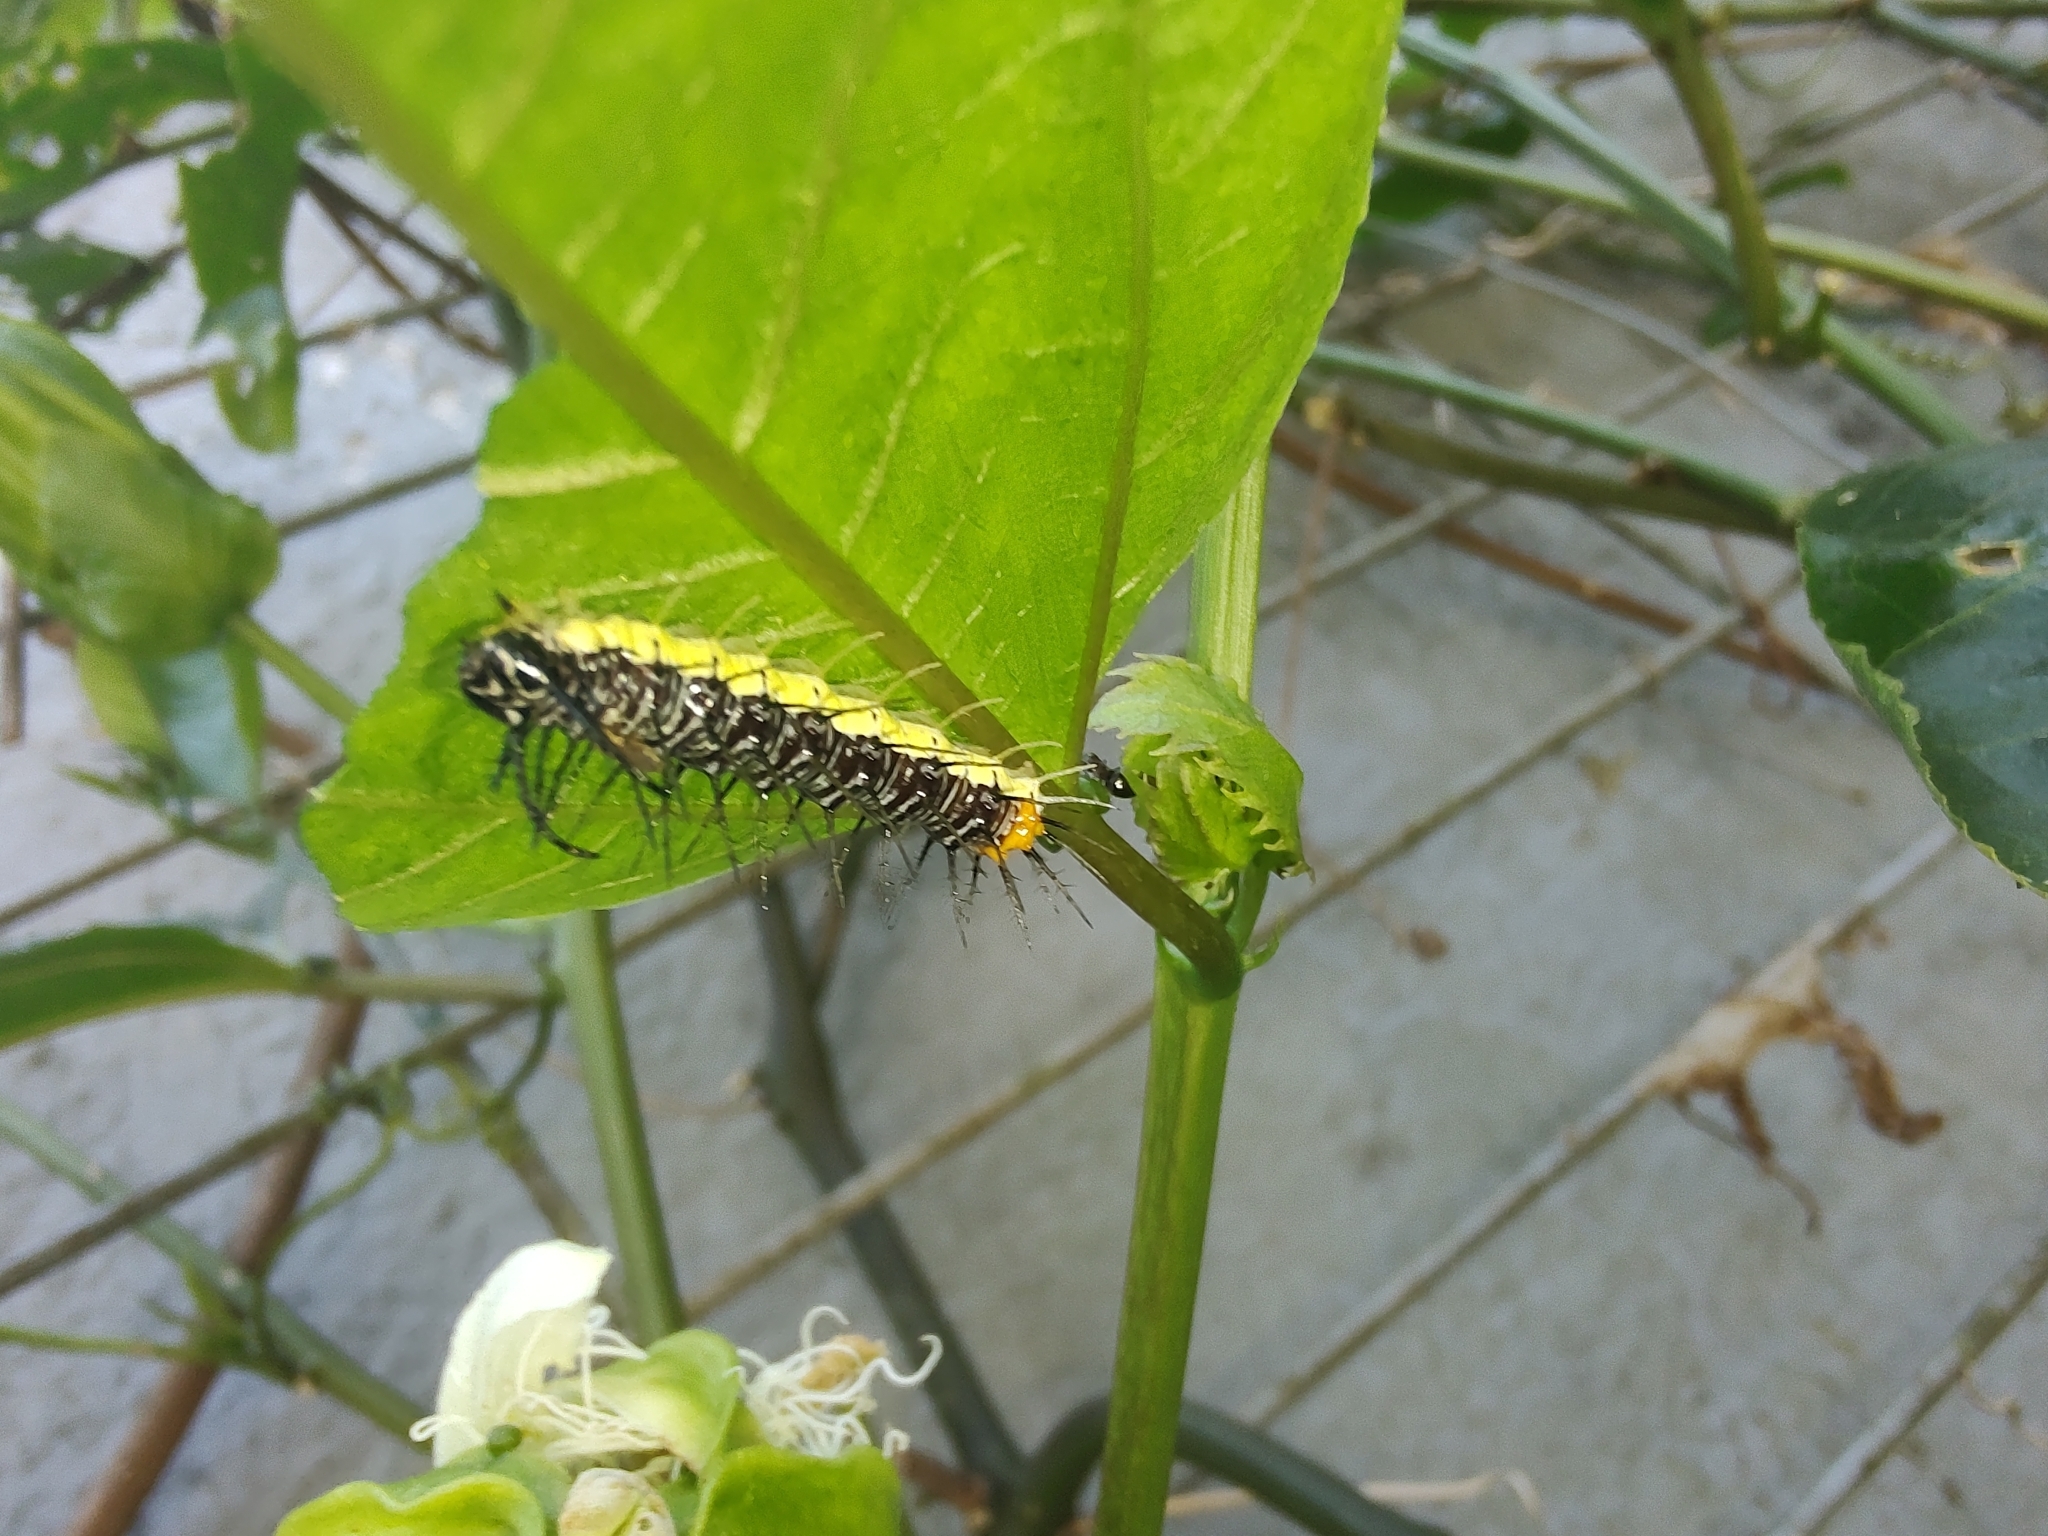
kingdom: Animalia
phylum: Arthropoda
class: Insecta
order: Lepidoptera
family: Nymphalidae
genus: Eueides
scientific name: Eueides isabella
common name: Isabella's longwing
